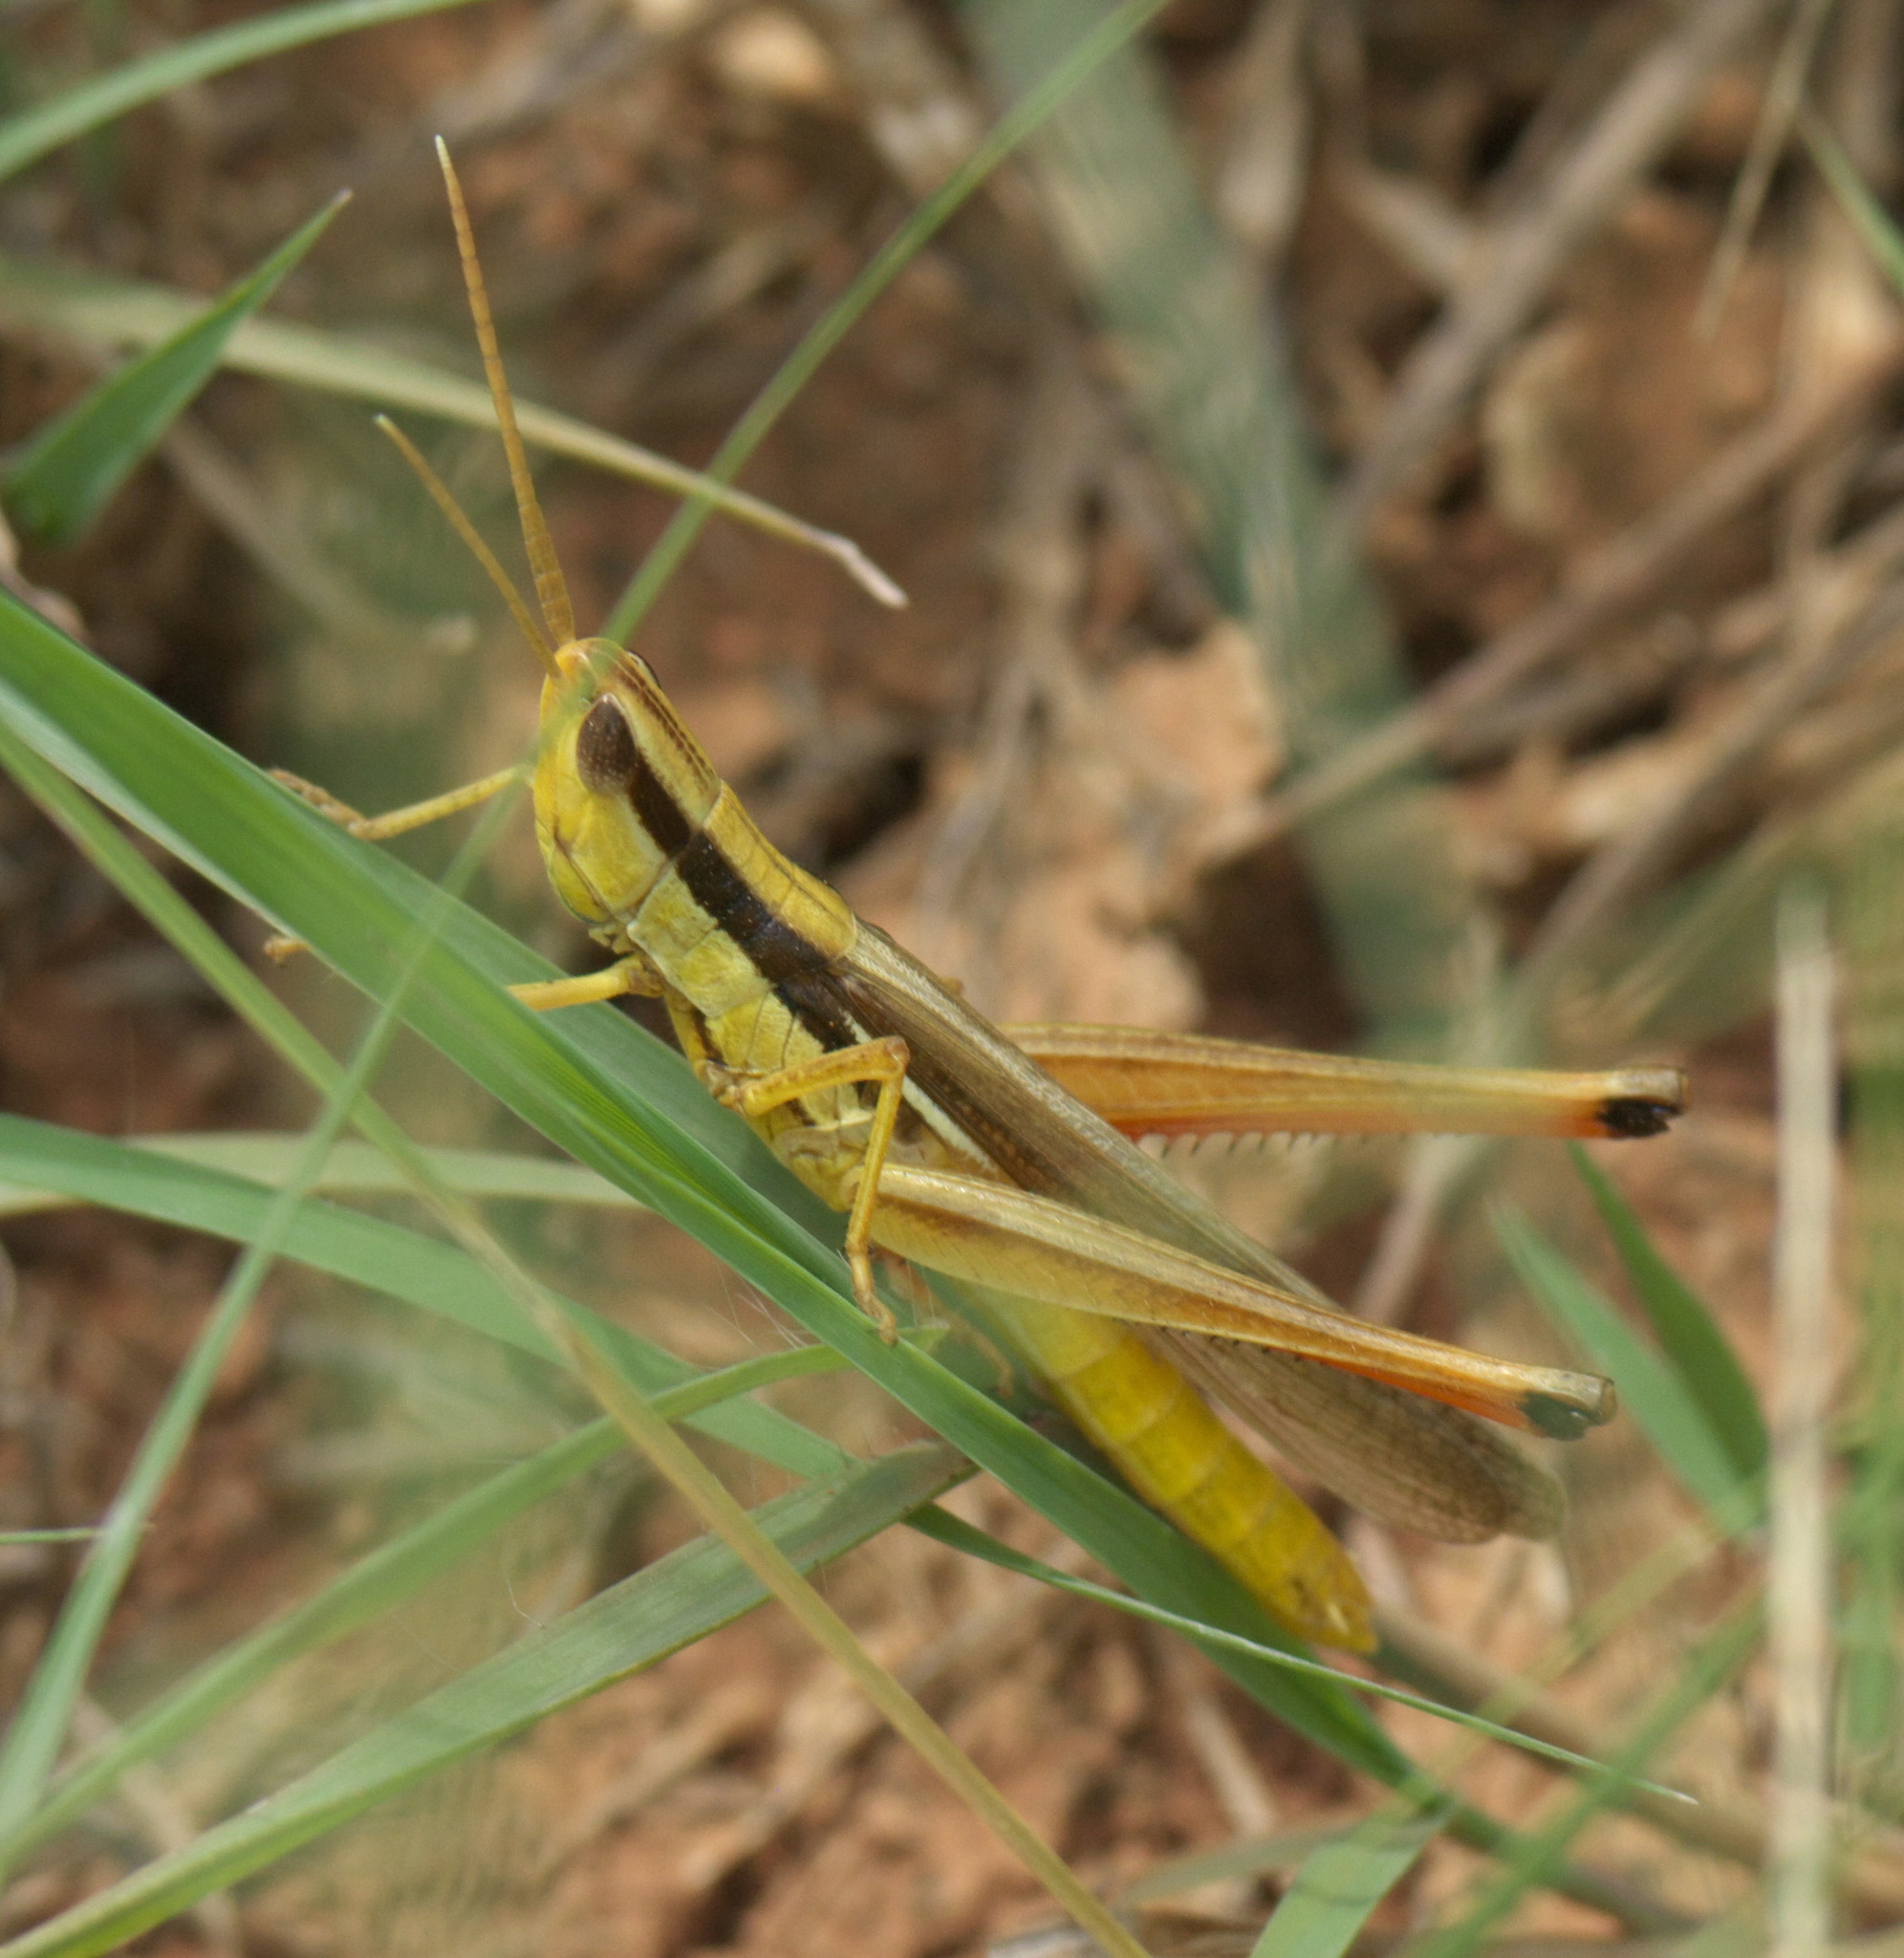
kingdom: Animalia
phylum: Arthropoda
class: Insecta
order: Orthoptera
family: Acrididae
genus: Mermiria
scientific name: Mermiria bivittata
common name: Two-striped mermiria grasshopper
